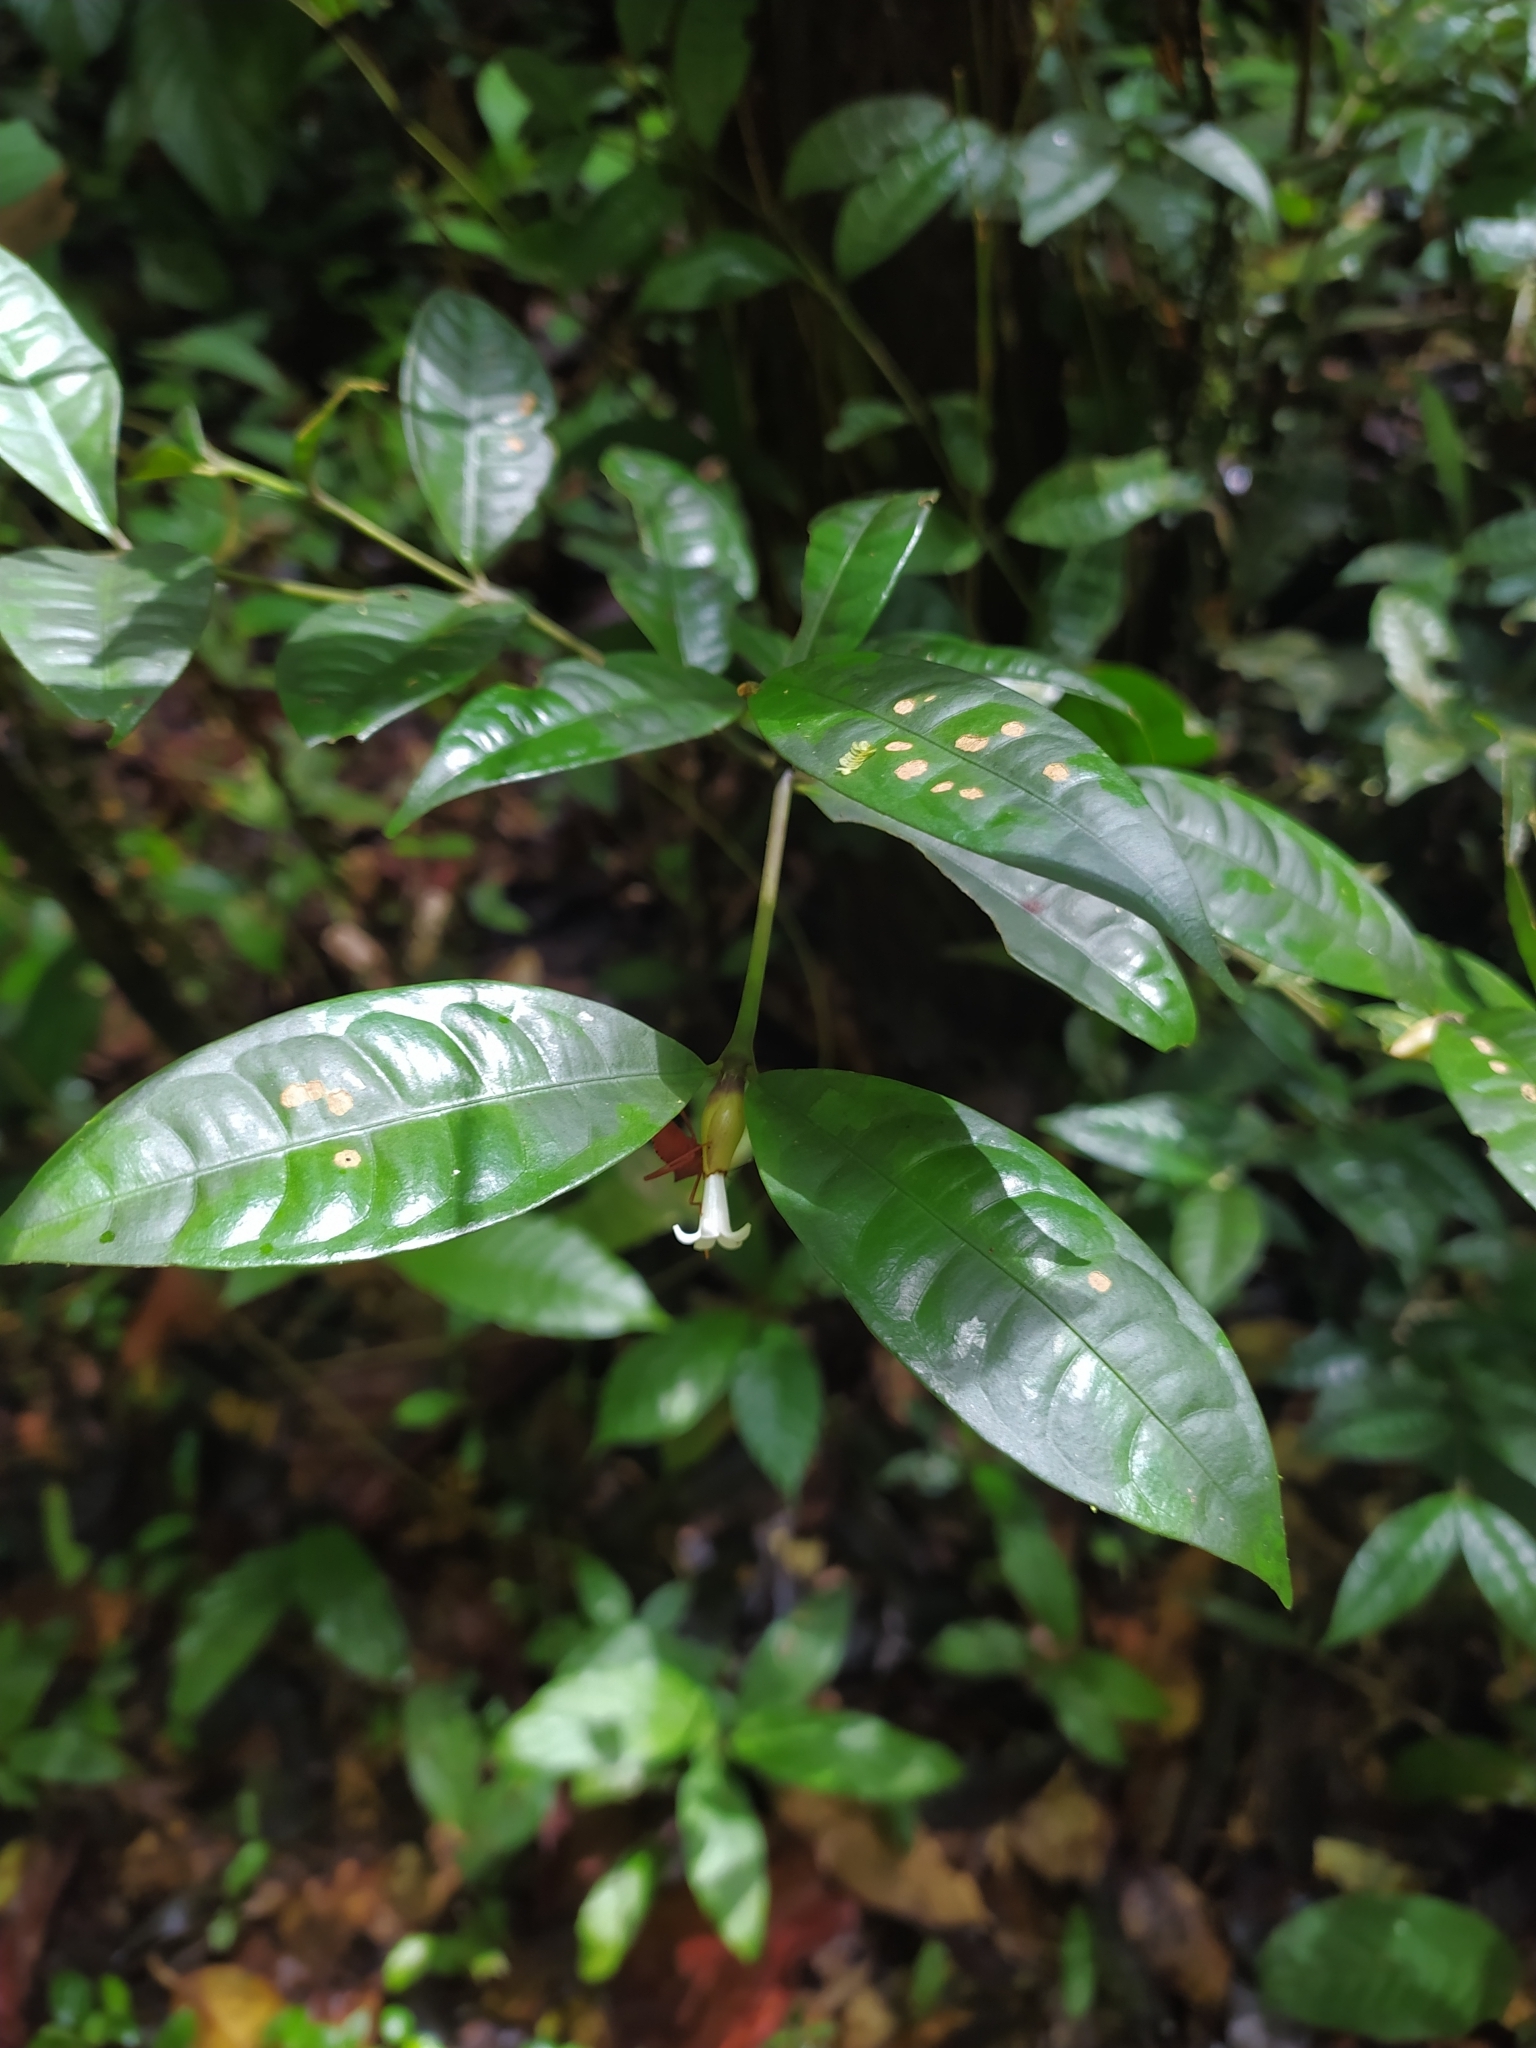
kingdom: Plantae
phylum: Tracheophyta
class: Magnoliopsida
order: Gentianales
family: Rubiaceae
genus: Palicourea
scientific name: Palicourea oblonga
